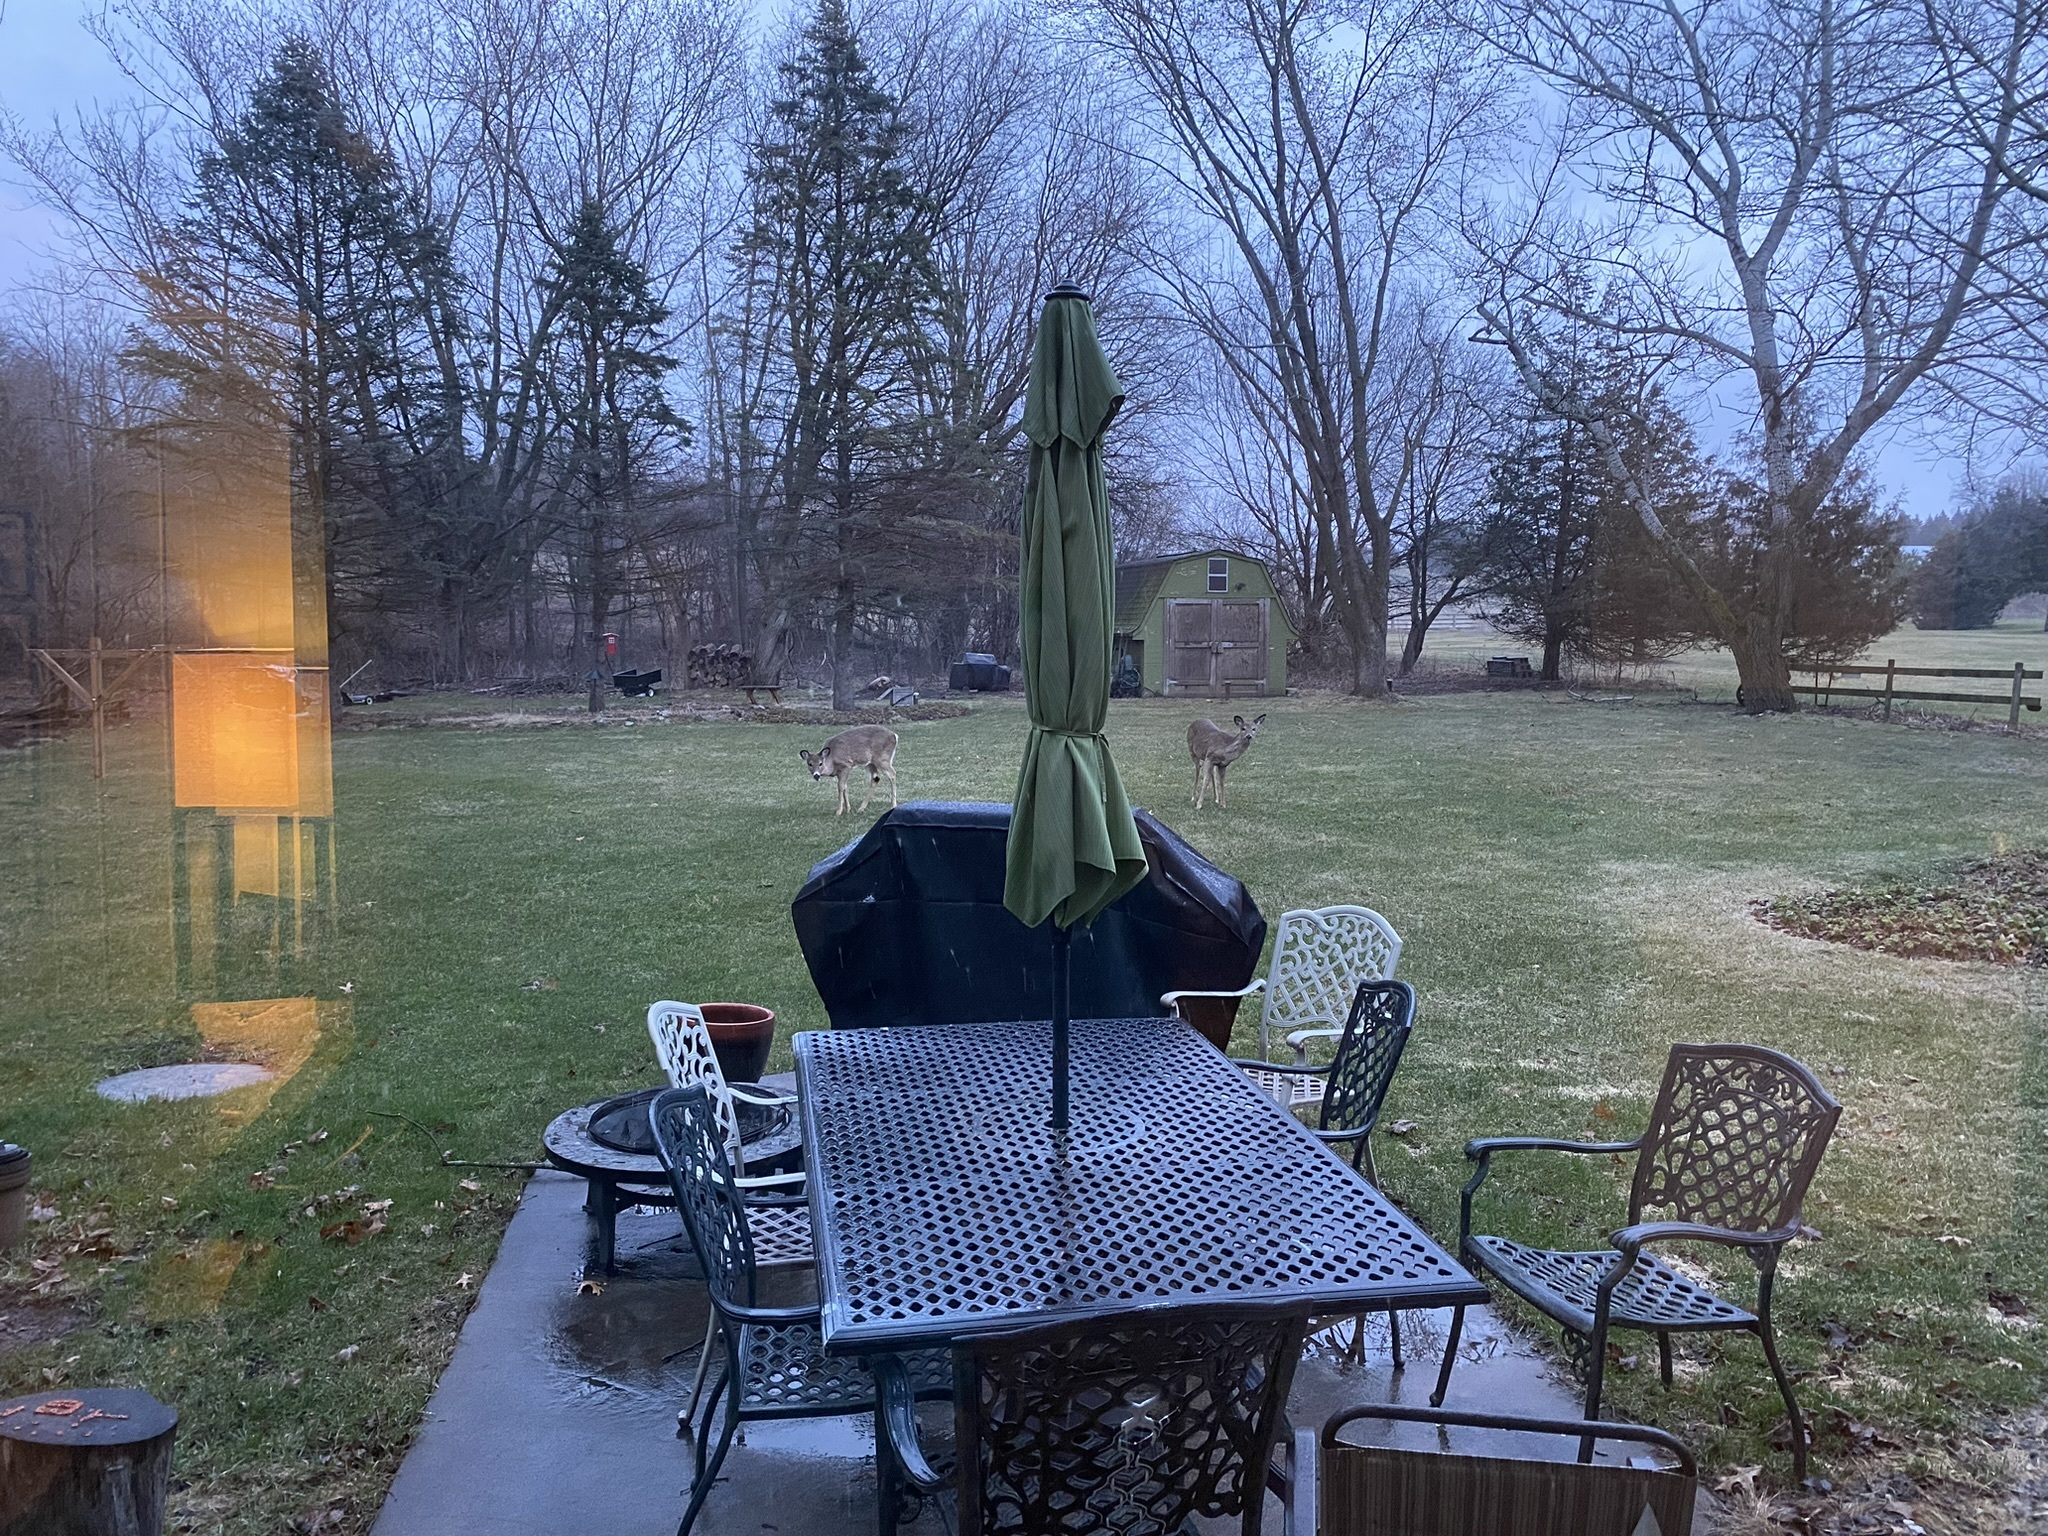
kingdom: Animalia
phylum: Chordata
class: Mammalia
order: Artiodactyla
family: Cervidae
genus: Odocoileus
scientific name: Odocoileus virginianus
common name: White-tailed deer
